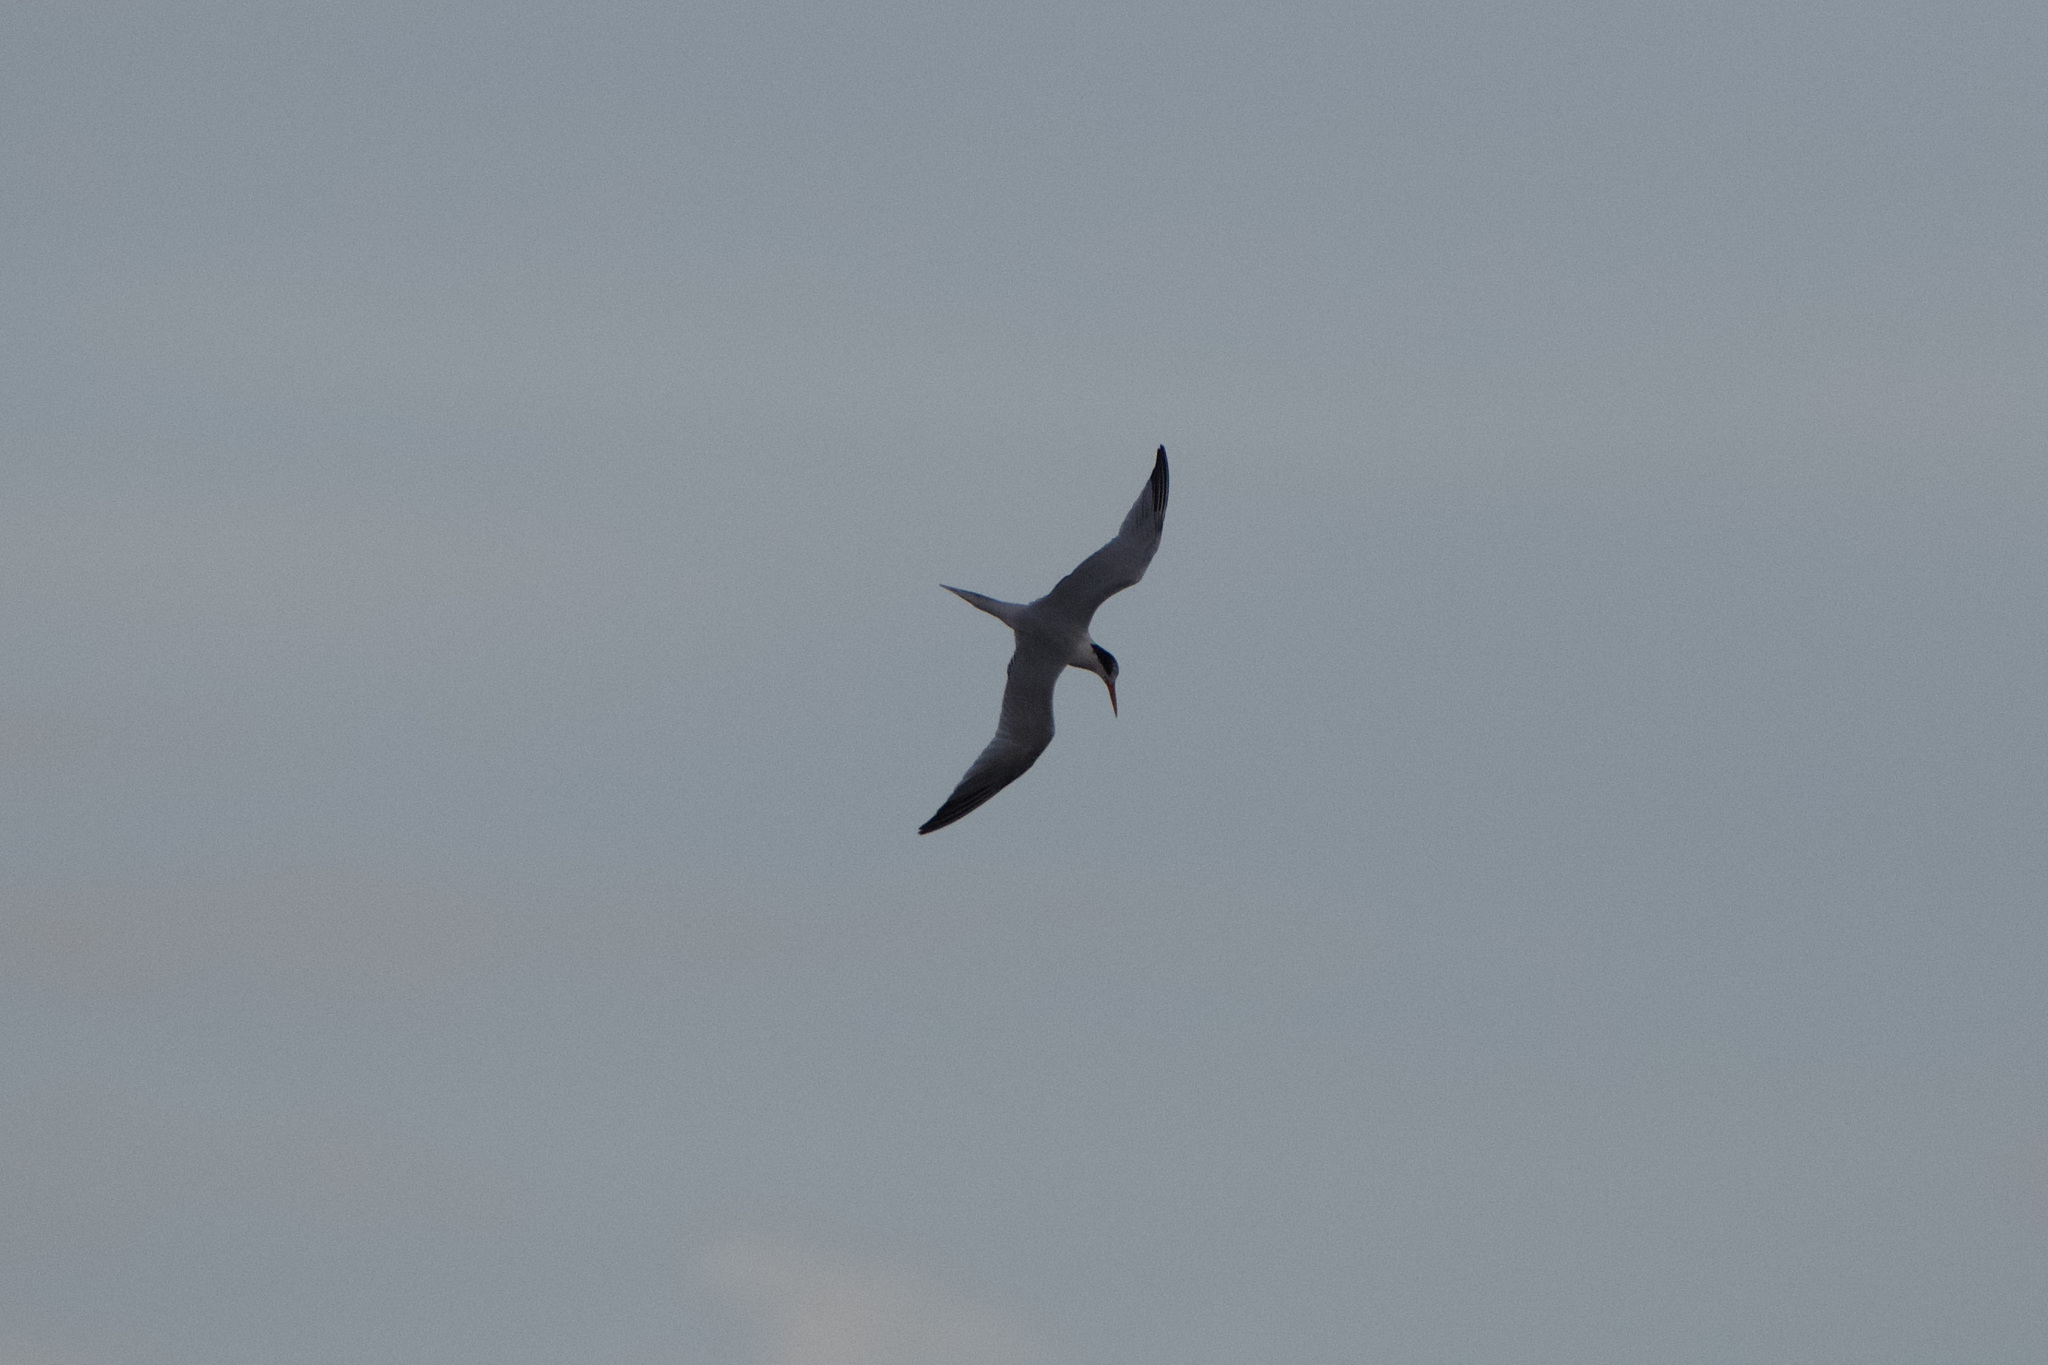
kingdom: Animalia
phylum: Chordata
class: Aves
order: Charadriiformes
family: Laridae
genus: Thalasseus
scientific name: Thalasseus elegans
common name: Elegant tern
